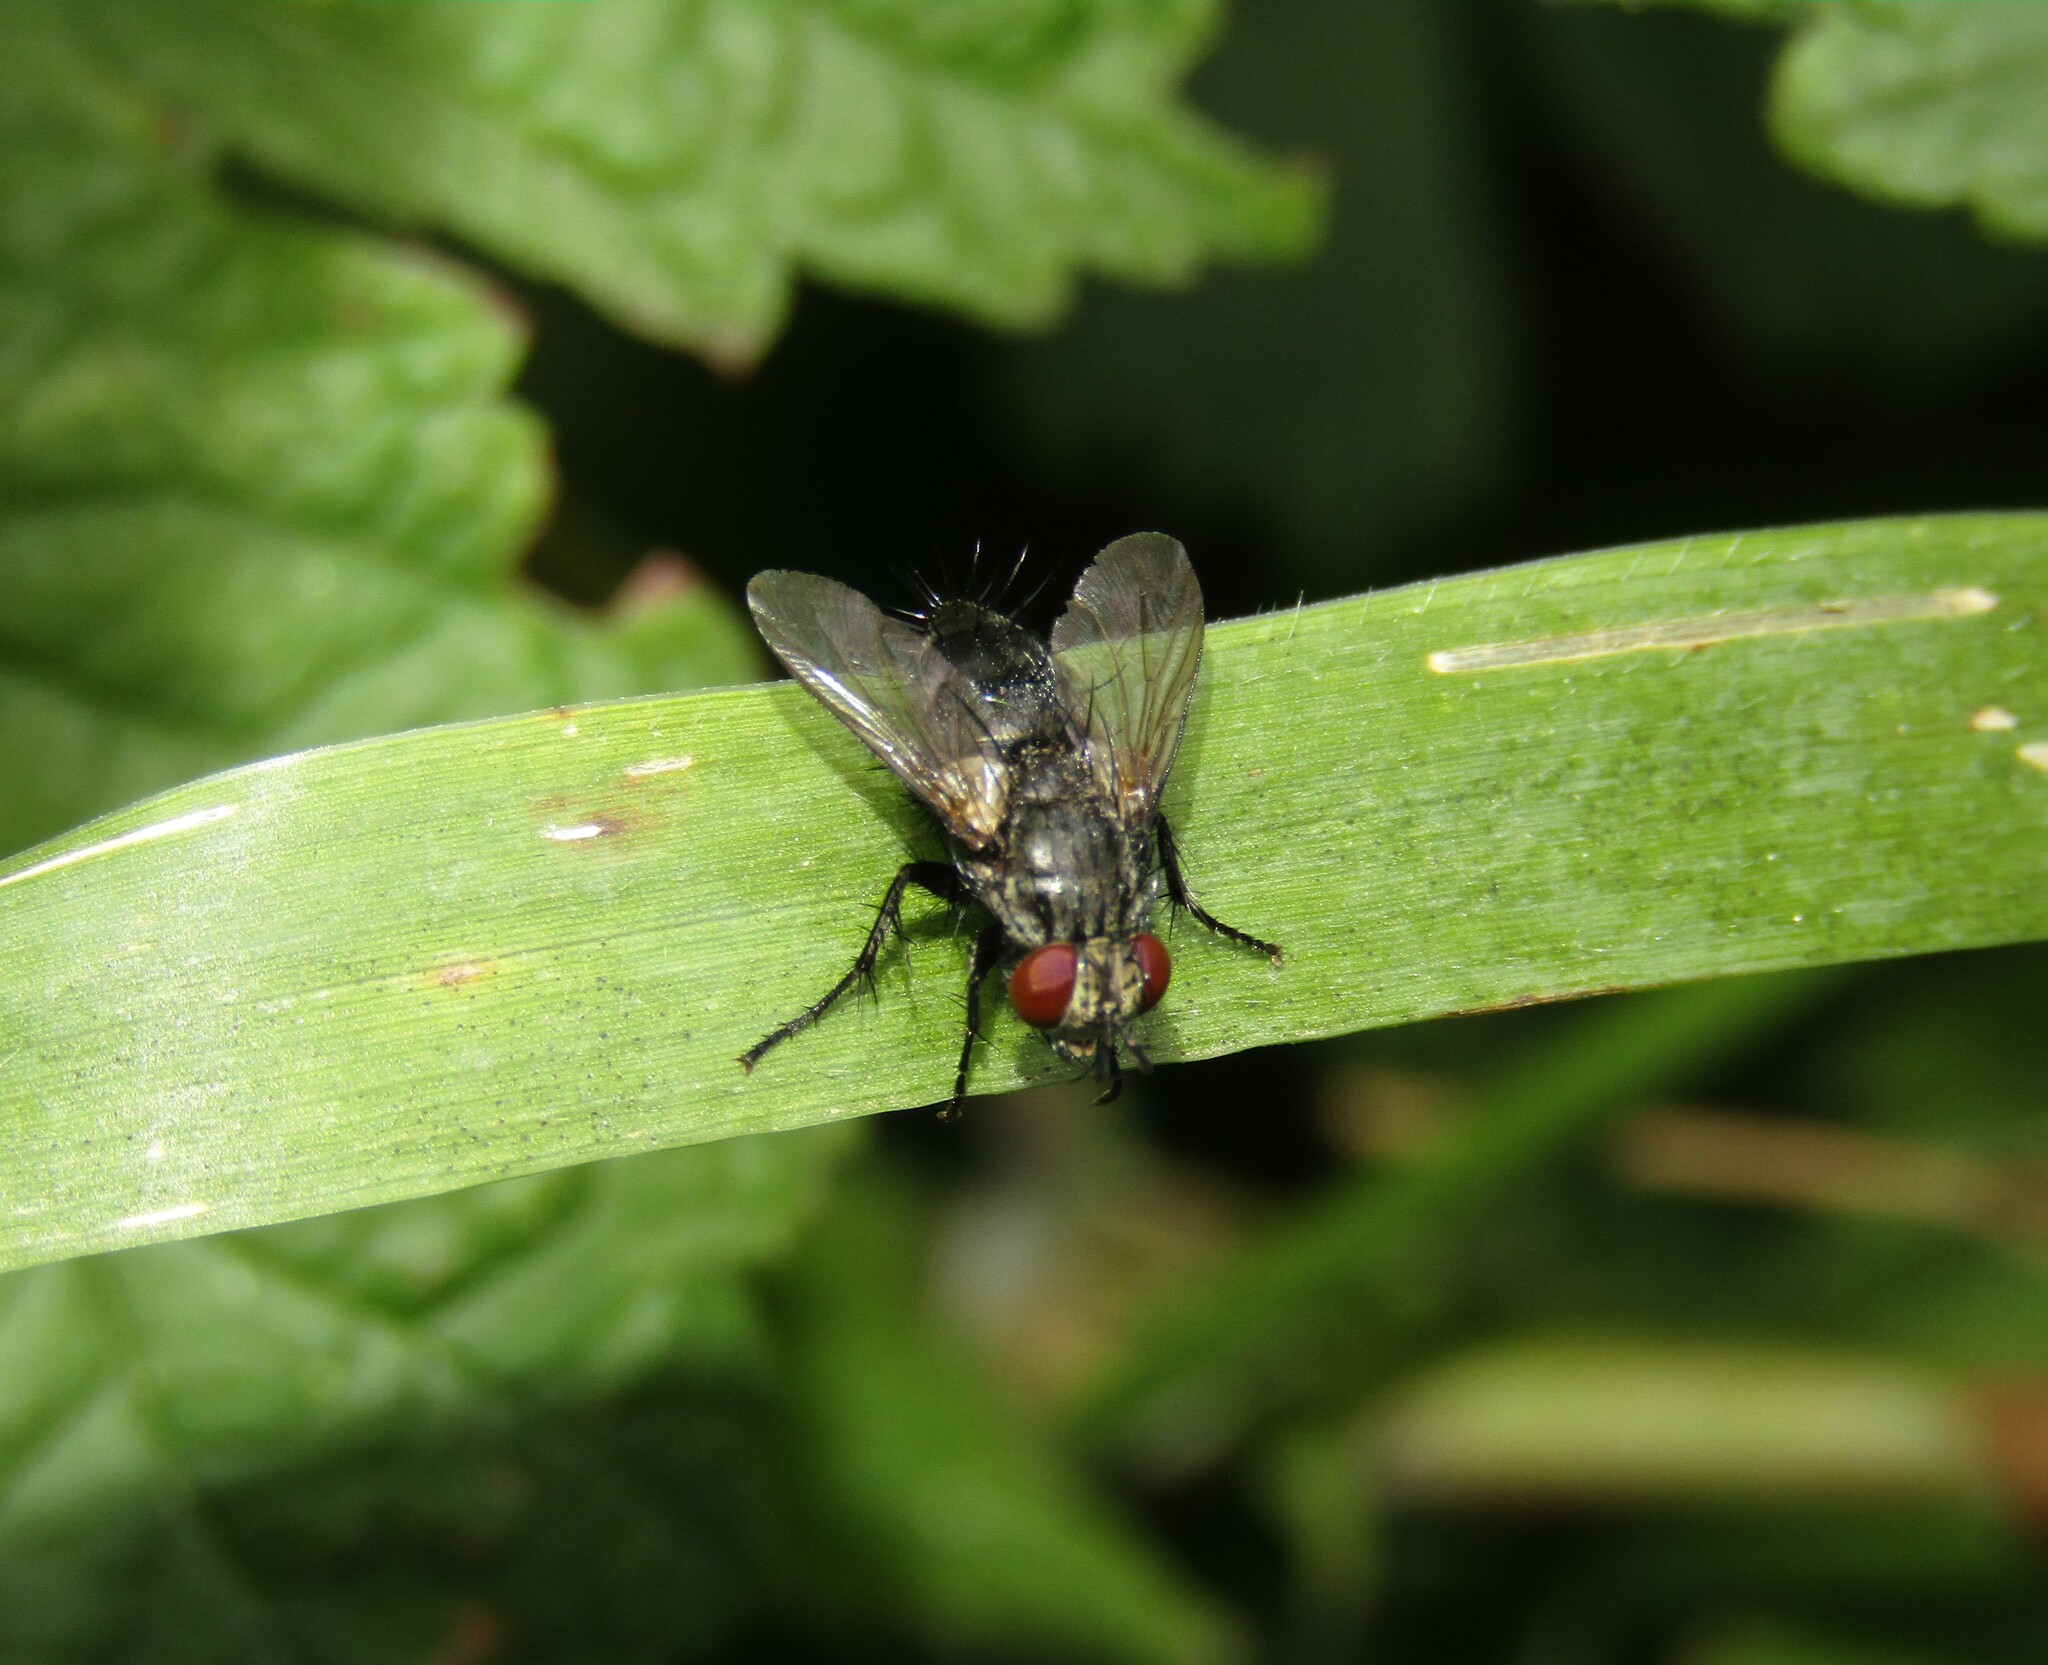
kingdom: Animalia
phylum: Arthropoda
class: Insecta
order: Diptera
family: Tachinidae
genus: Voria
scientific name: Voria ruralis
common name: Parasitic fly
